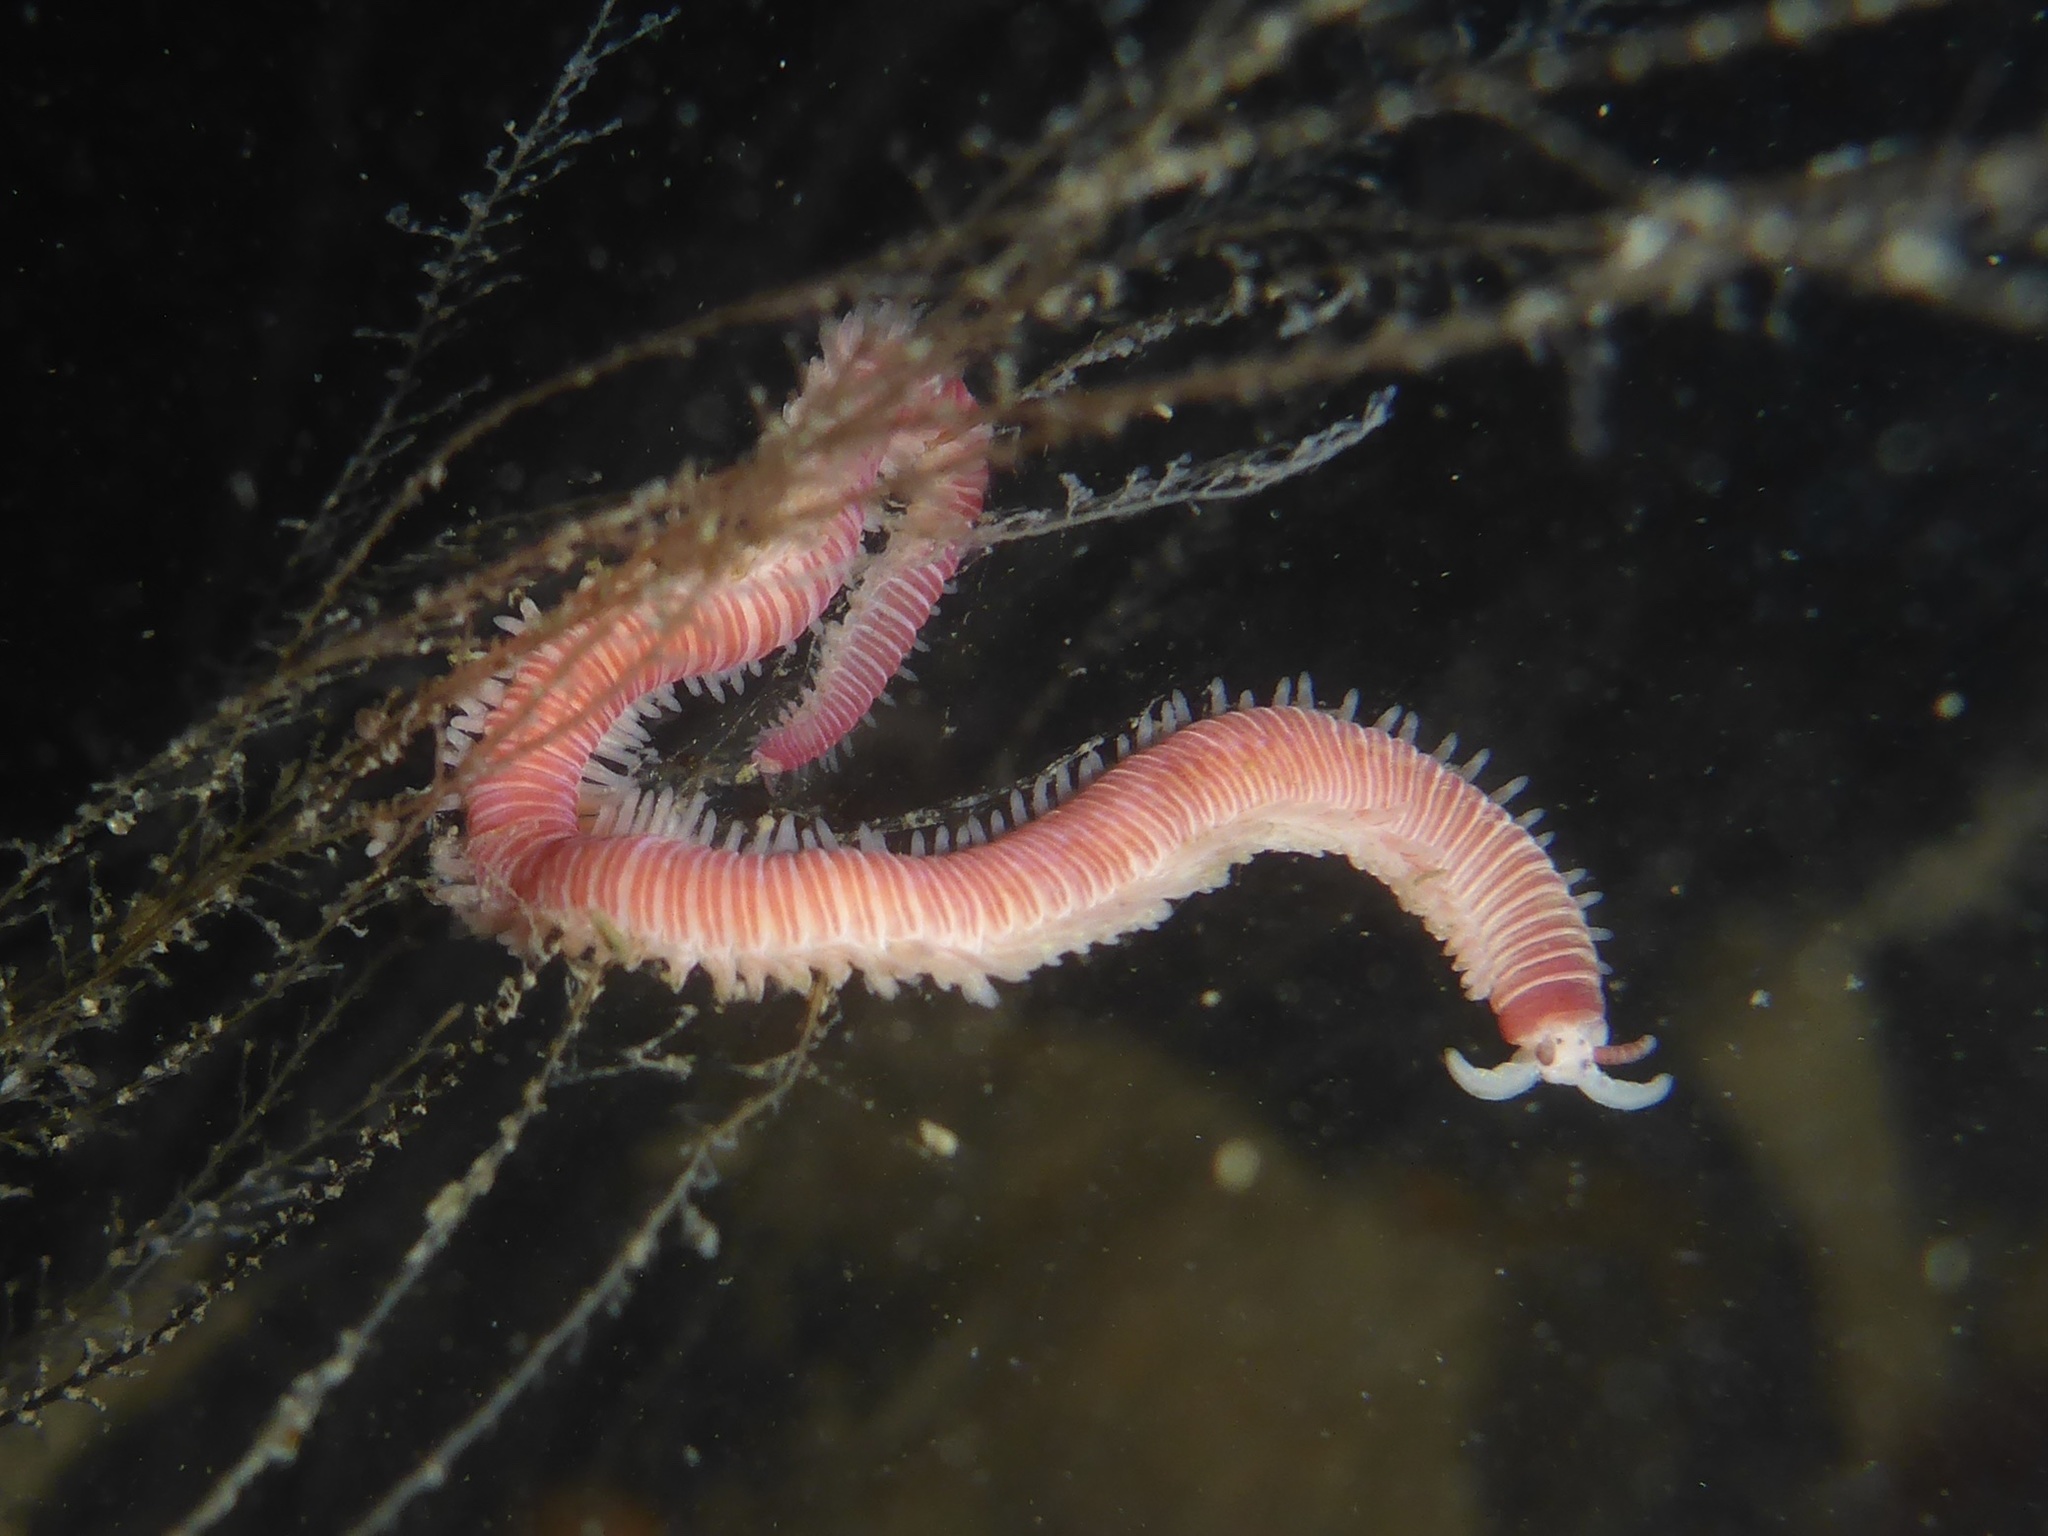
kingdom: Animalia
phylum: Annelida
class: Polychaeta
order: Eunicida
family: Dorvilleidae
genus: Dorvillea
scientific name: Dorvillea moniloceras
